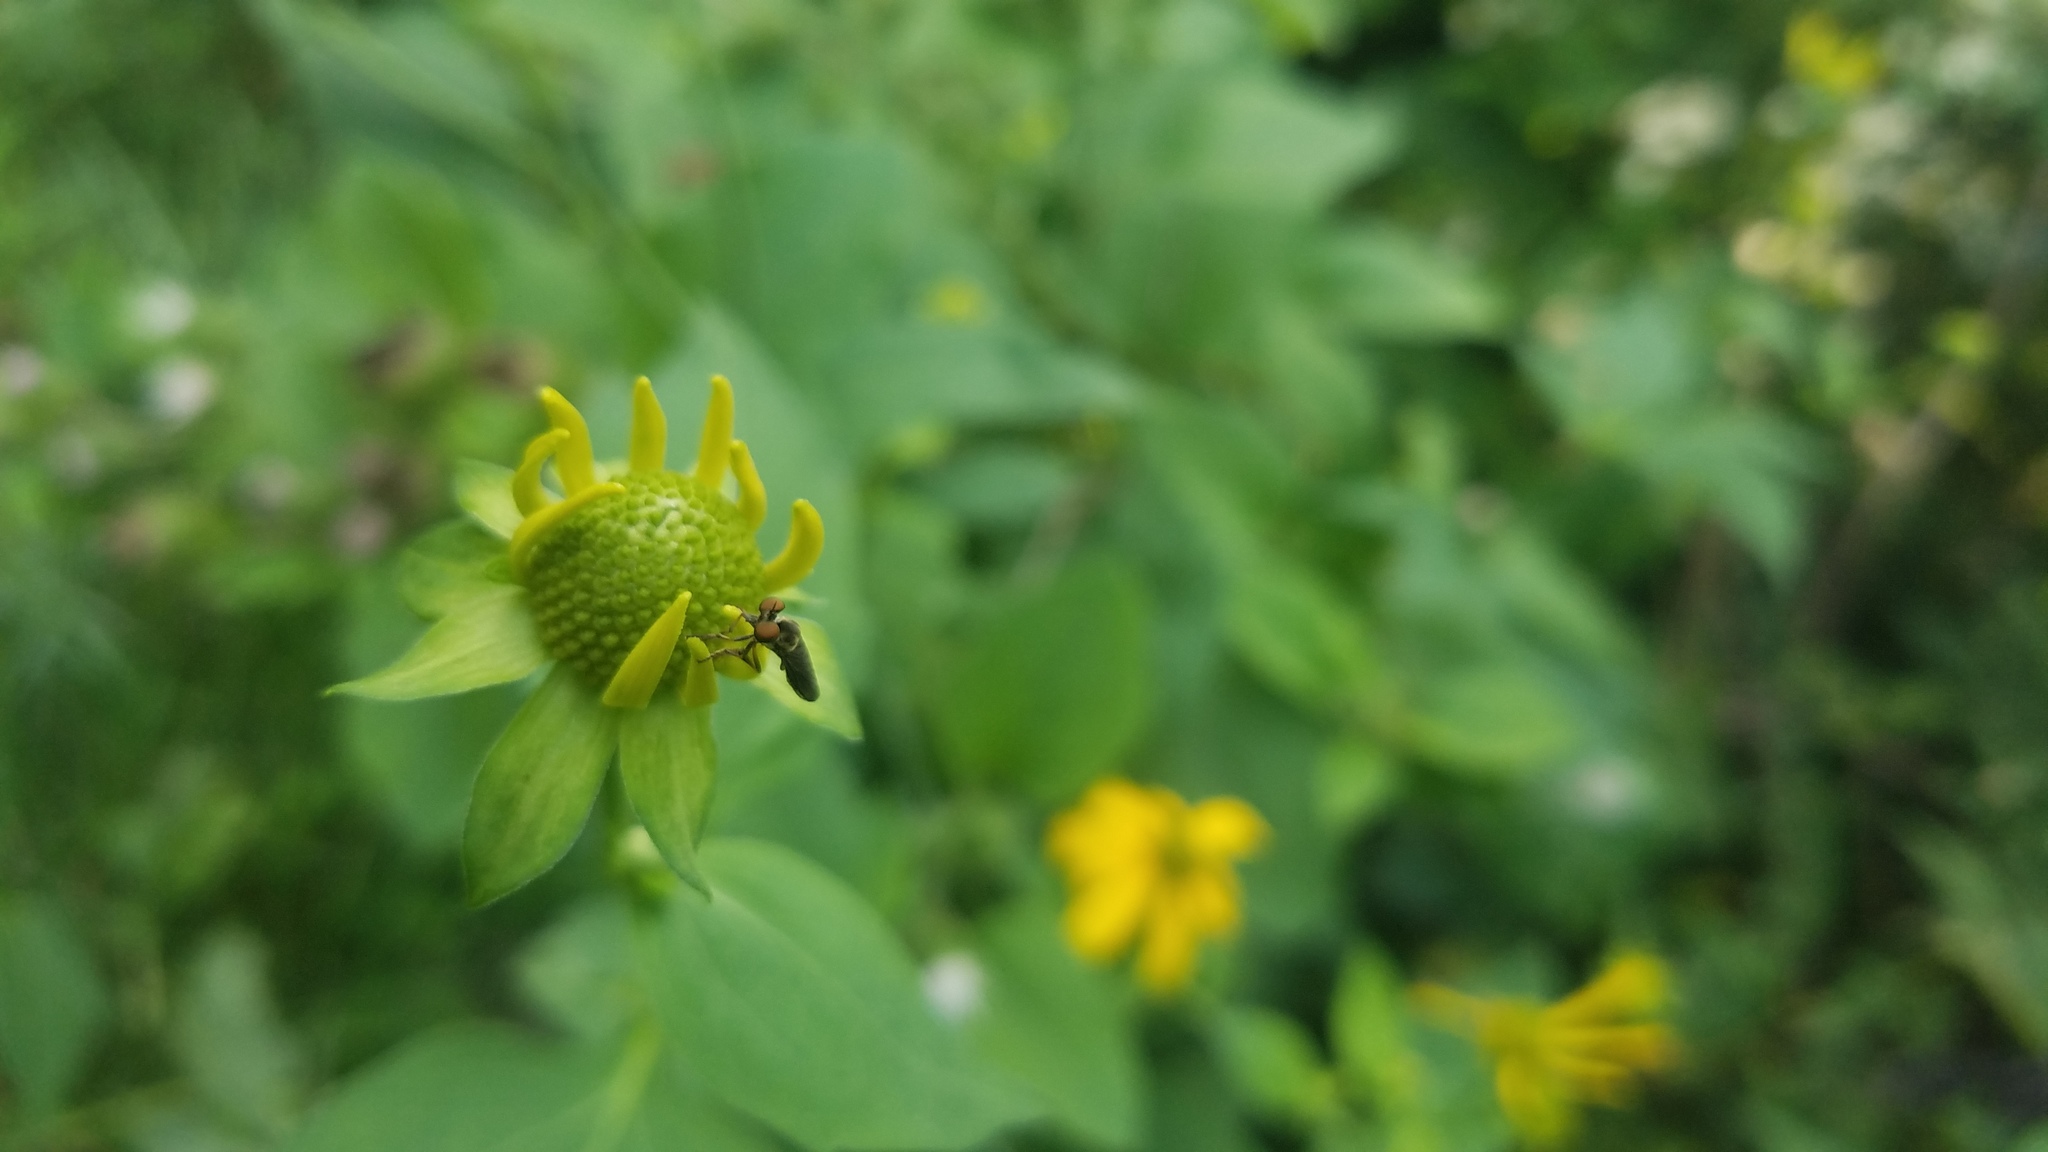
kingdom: Plantae
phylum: Tracheophyta
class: Magnoliopsida
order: Asterales
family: Asteraceae
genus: Rudbeckia
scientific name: Rudbeckia laciniata
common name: Coneflower
